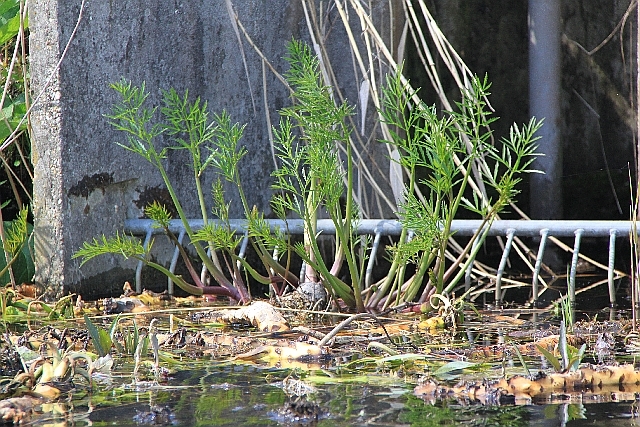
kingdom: Plantae
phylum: Tracheophyta
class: Magnoliopsida
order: Apiales
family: Apiaceae
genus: Cicuta
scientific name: Cicuta virosa
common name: Cowbane
